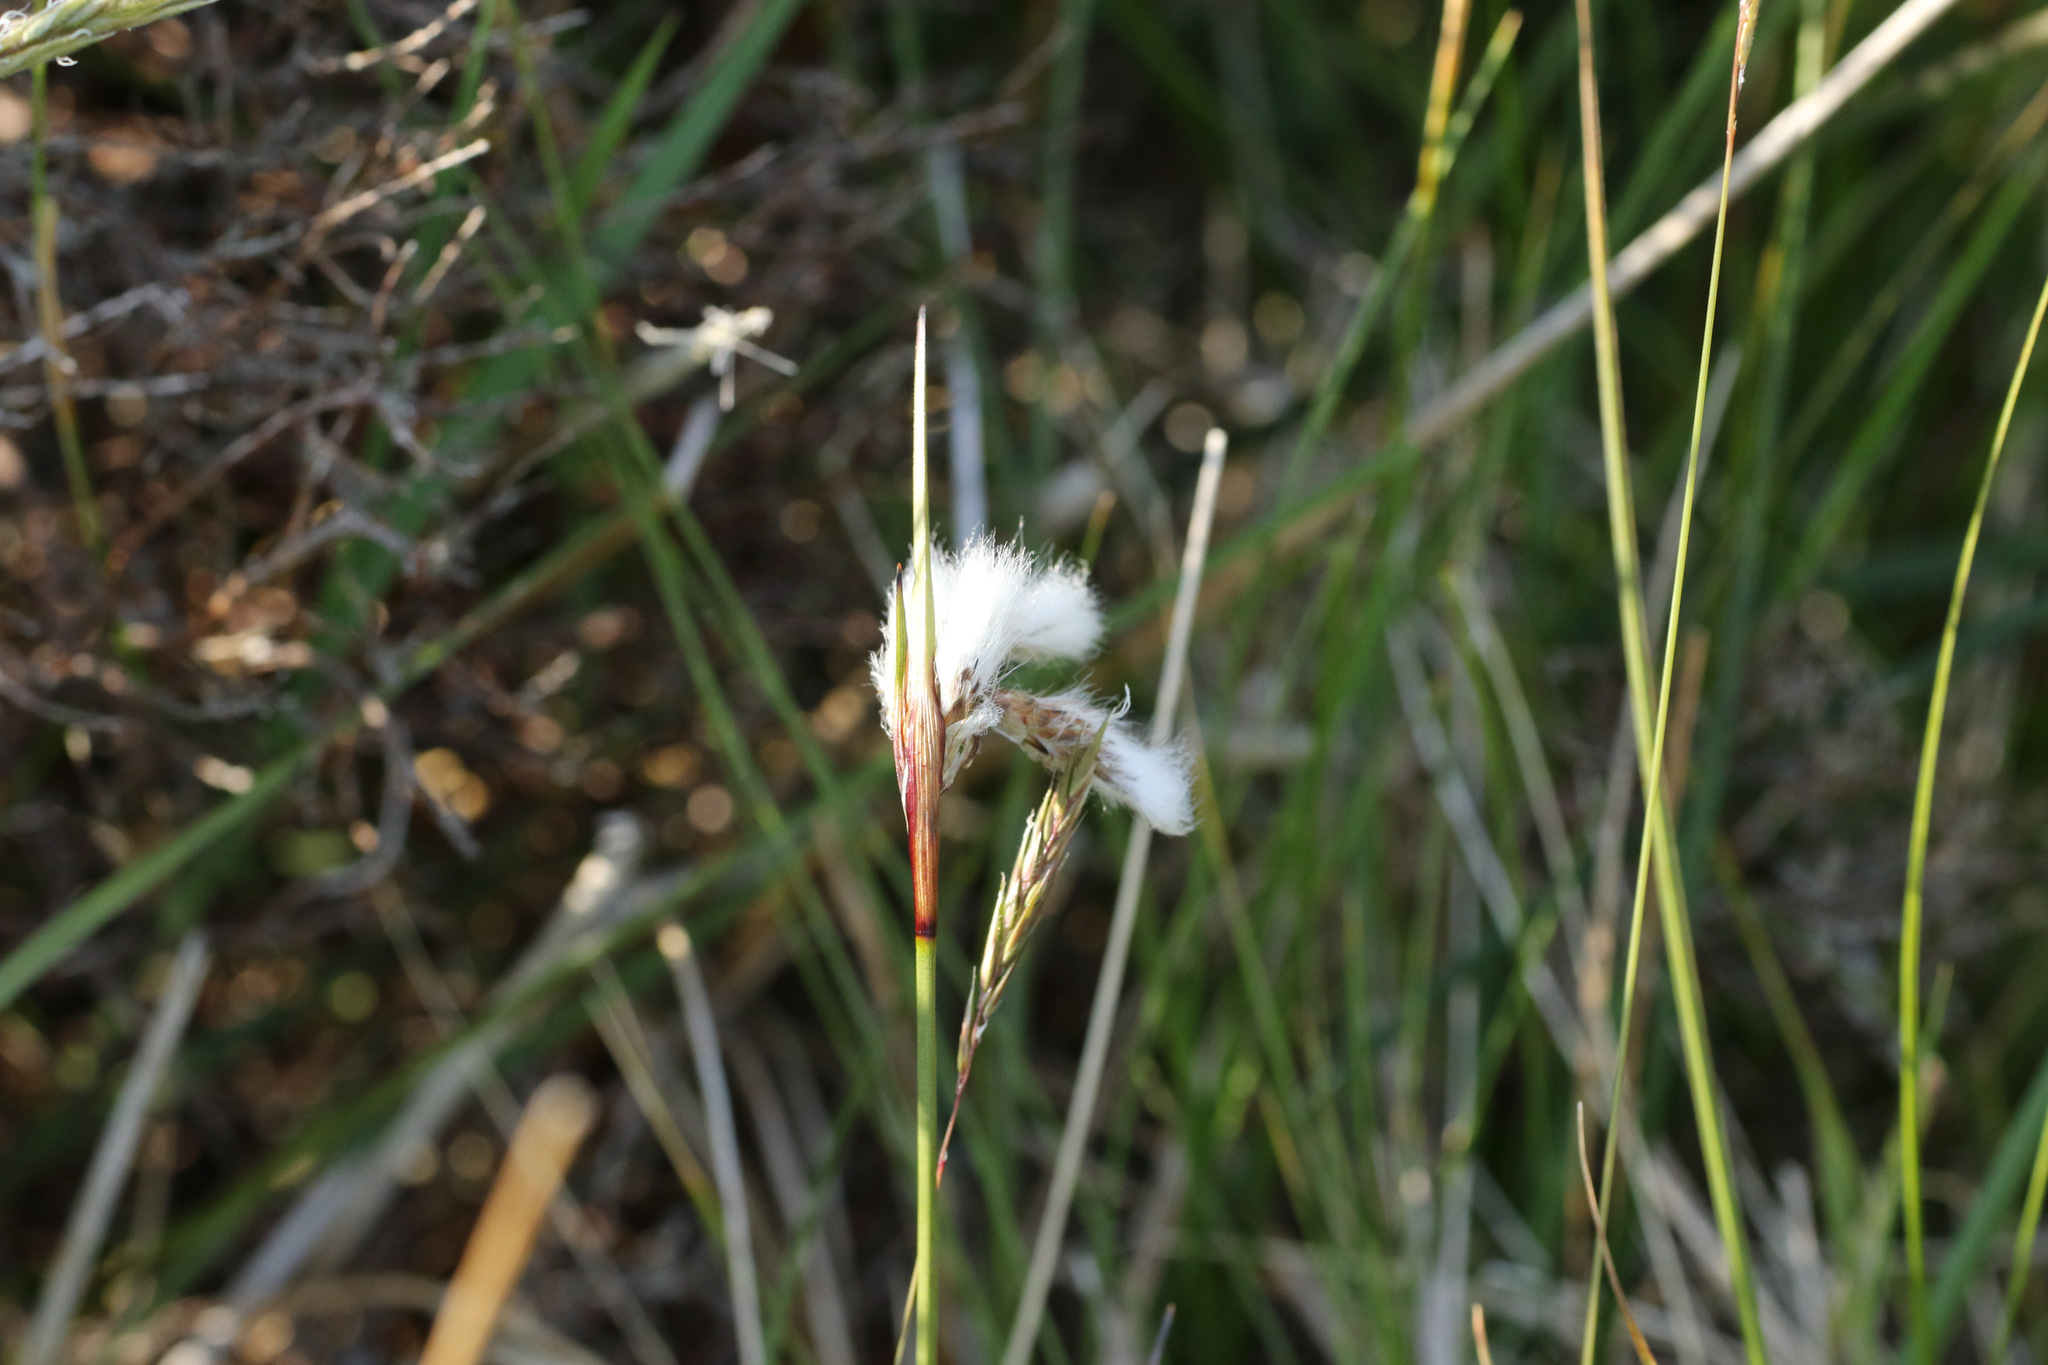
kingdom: Plantae
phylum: Tracheophyta
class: Liliopsida
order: Poales
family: Cyperaceae
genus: Eriophorum
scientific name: Eriophorum angustifolium
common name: Common cottongrass
